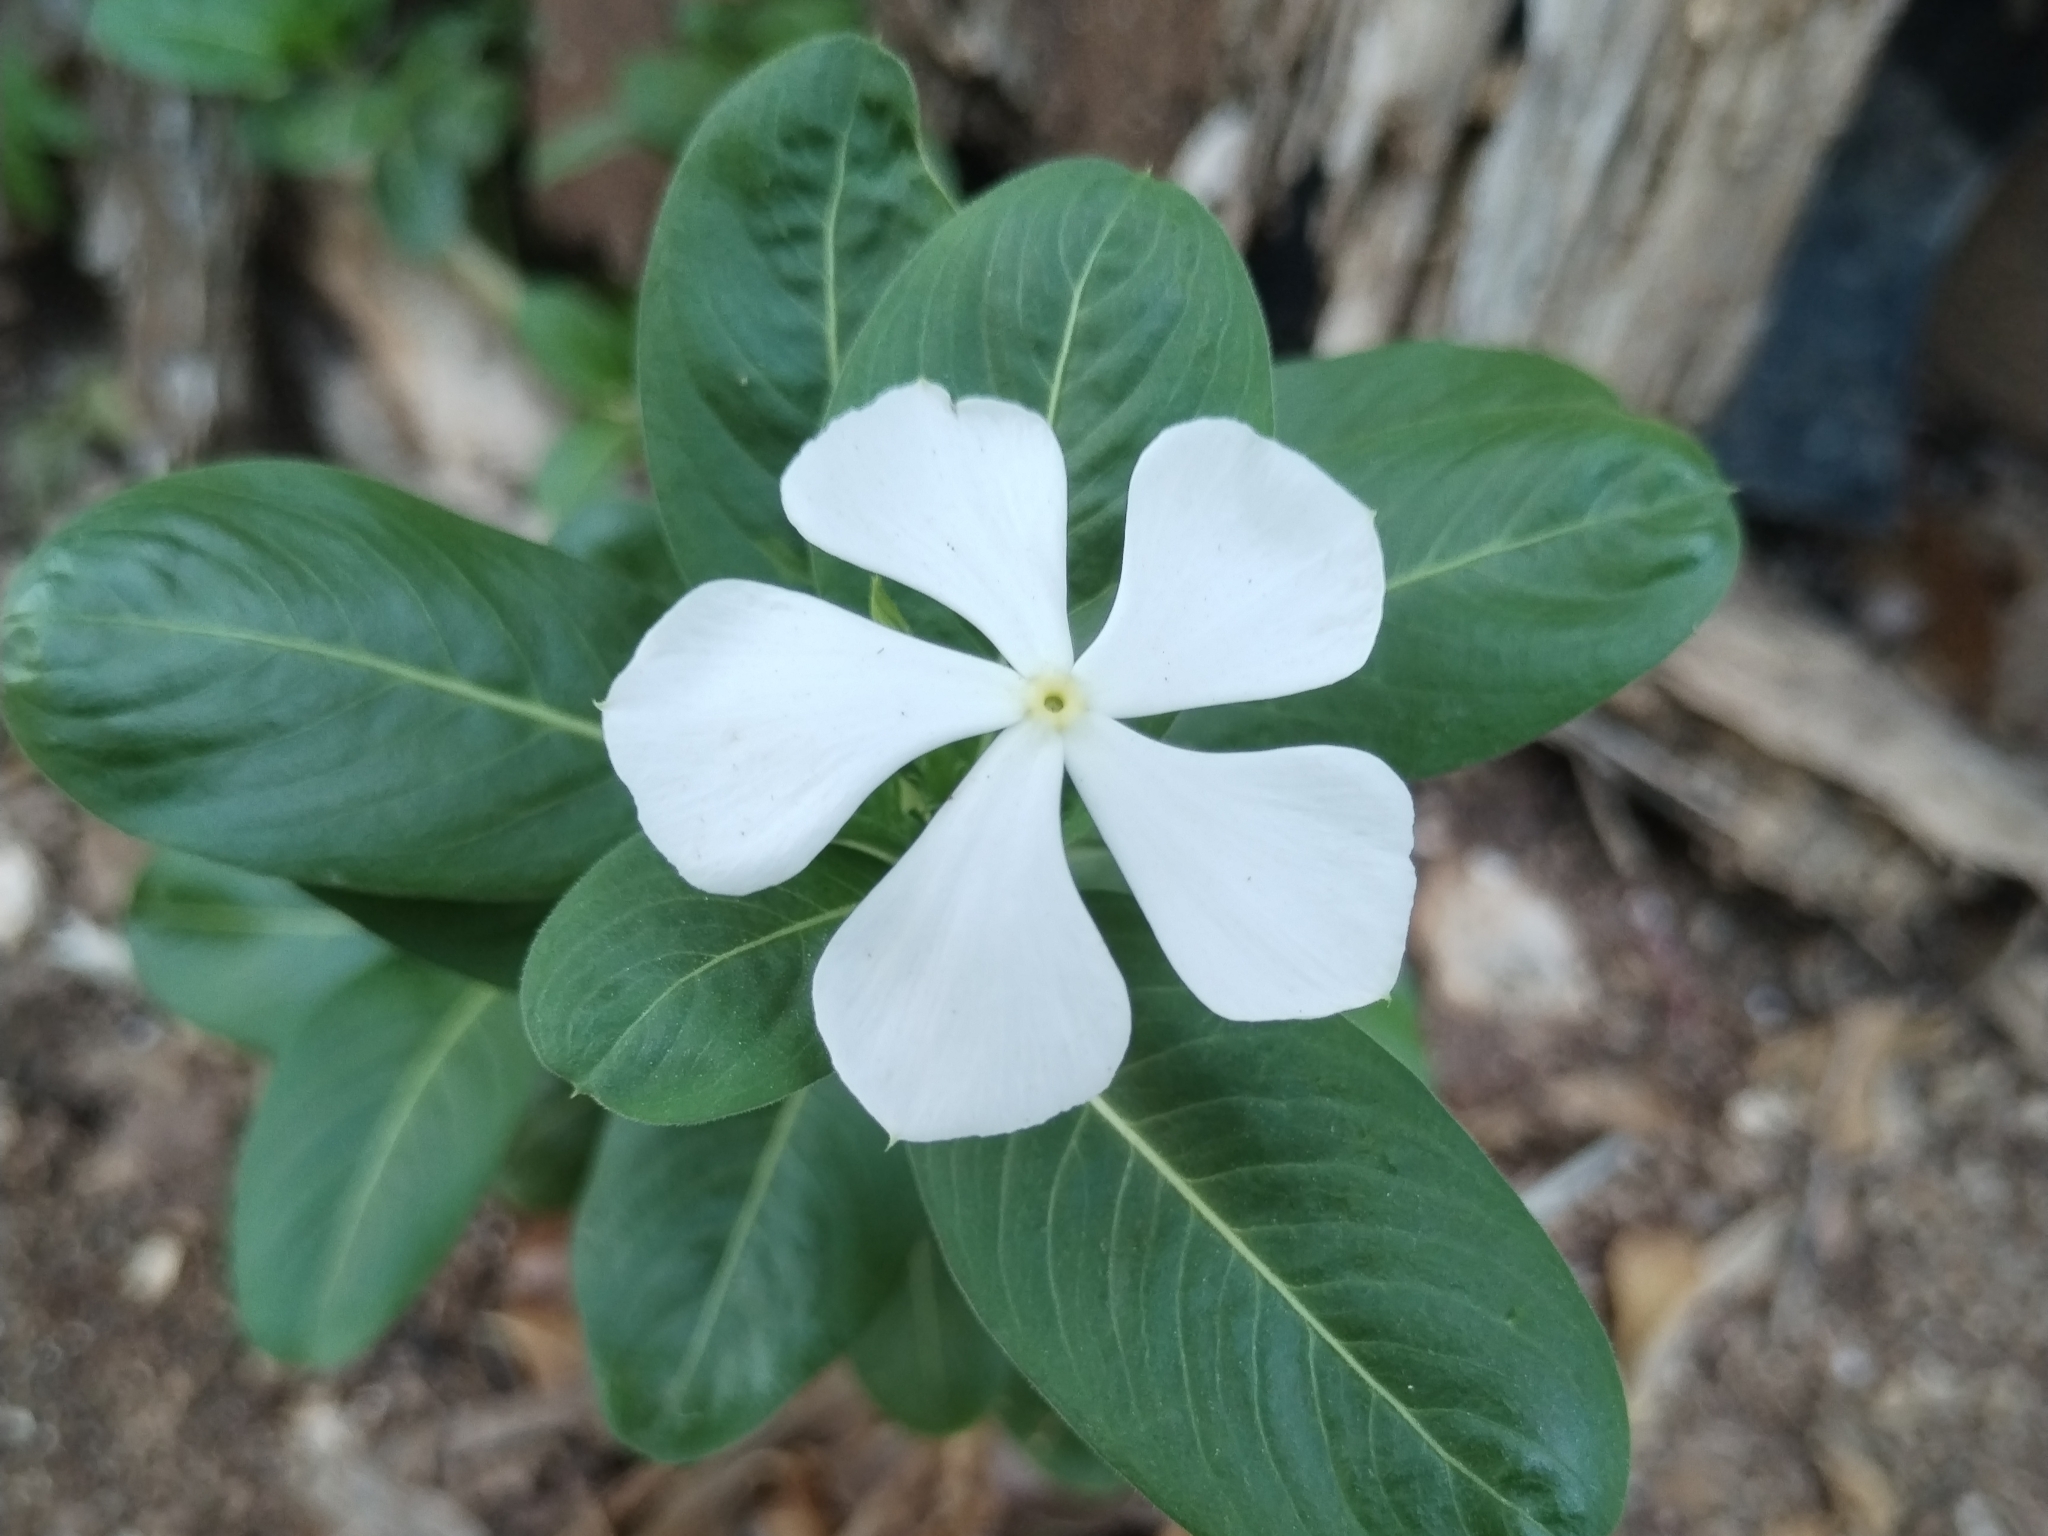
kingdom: Plantae
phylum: Tracheophyta
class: Magnoliopsida
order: Gentianales
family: Apocynaceae
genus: Catharanthus
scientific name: Catharanthus roseus
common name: Madagascar periwinkle
